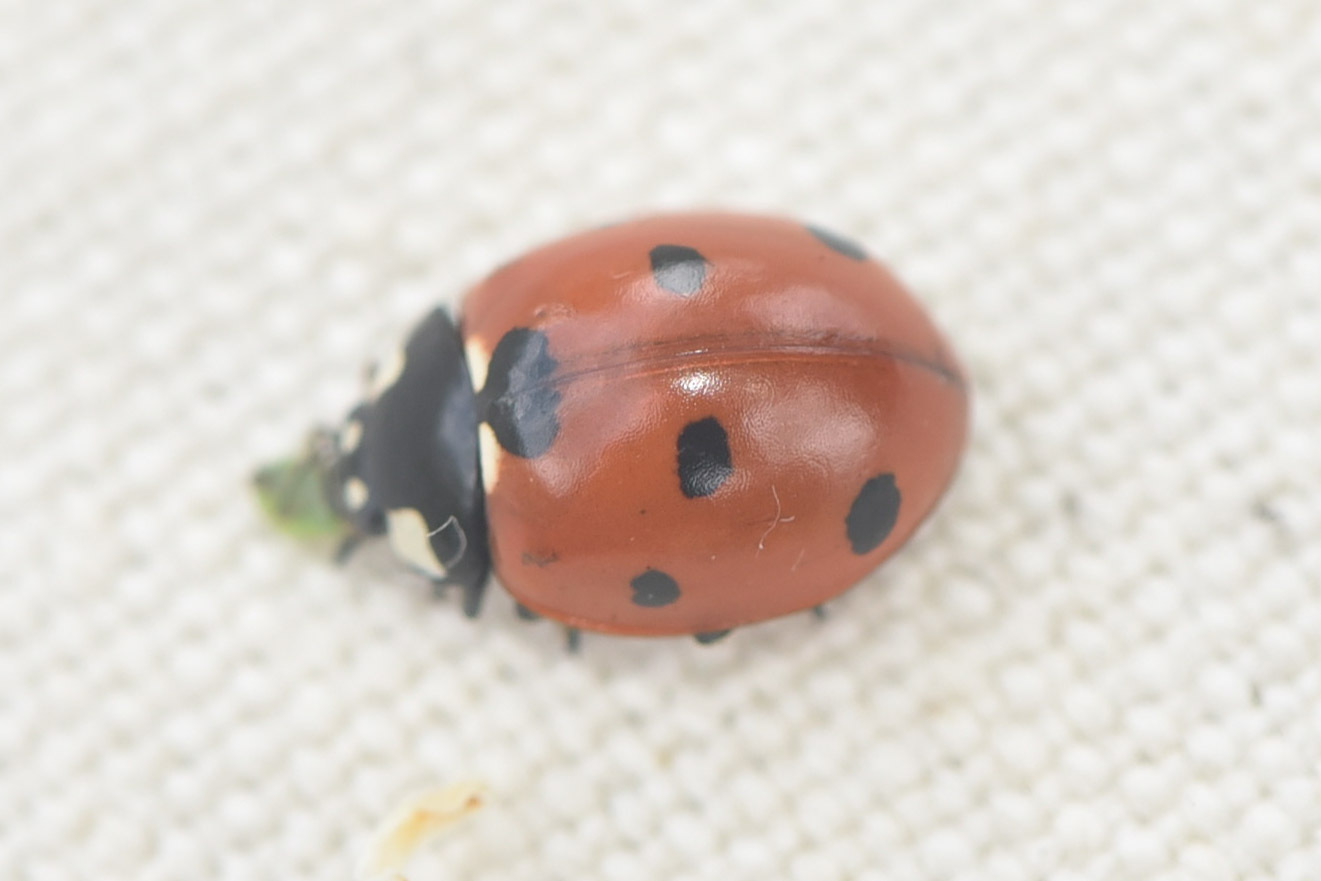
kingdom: Animalia
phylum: Arthropoda
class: Insecta
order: Coleoptera
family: Coccinellidae
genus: Coccinella
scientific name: Coccinella septempunctata
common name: Sevenspotted lady beetle
